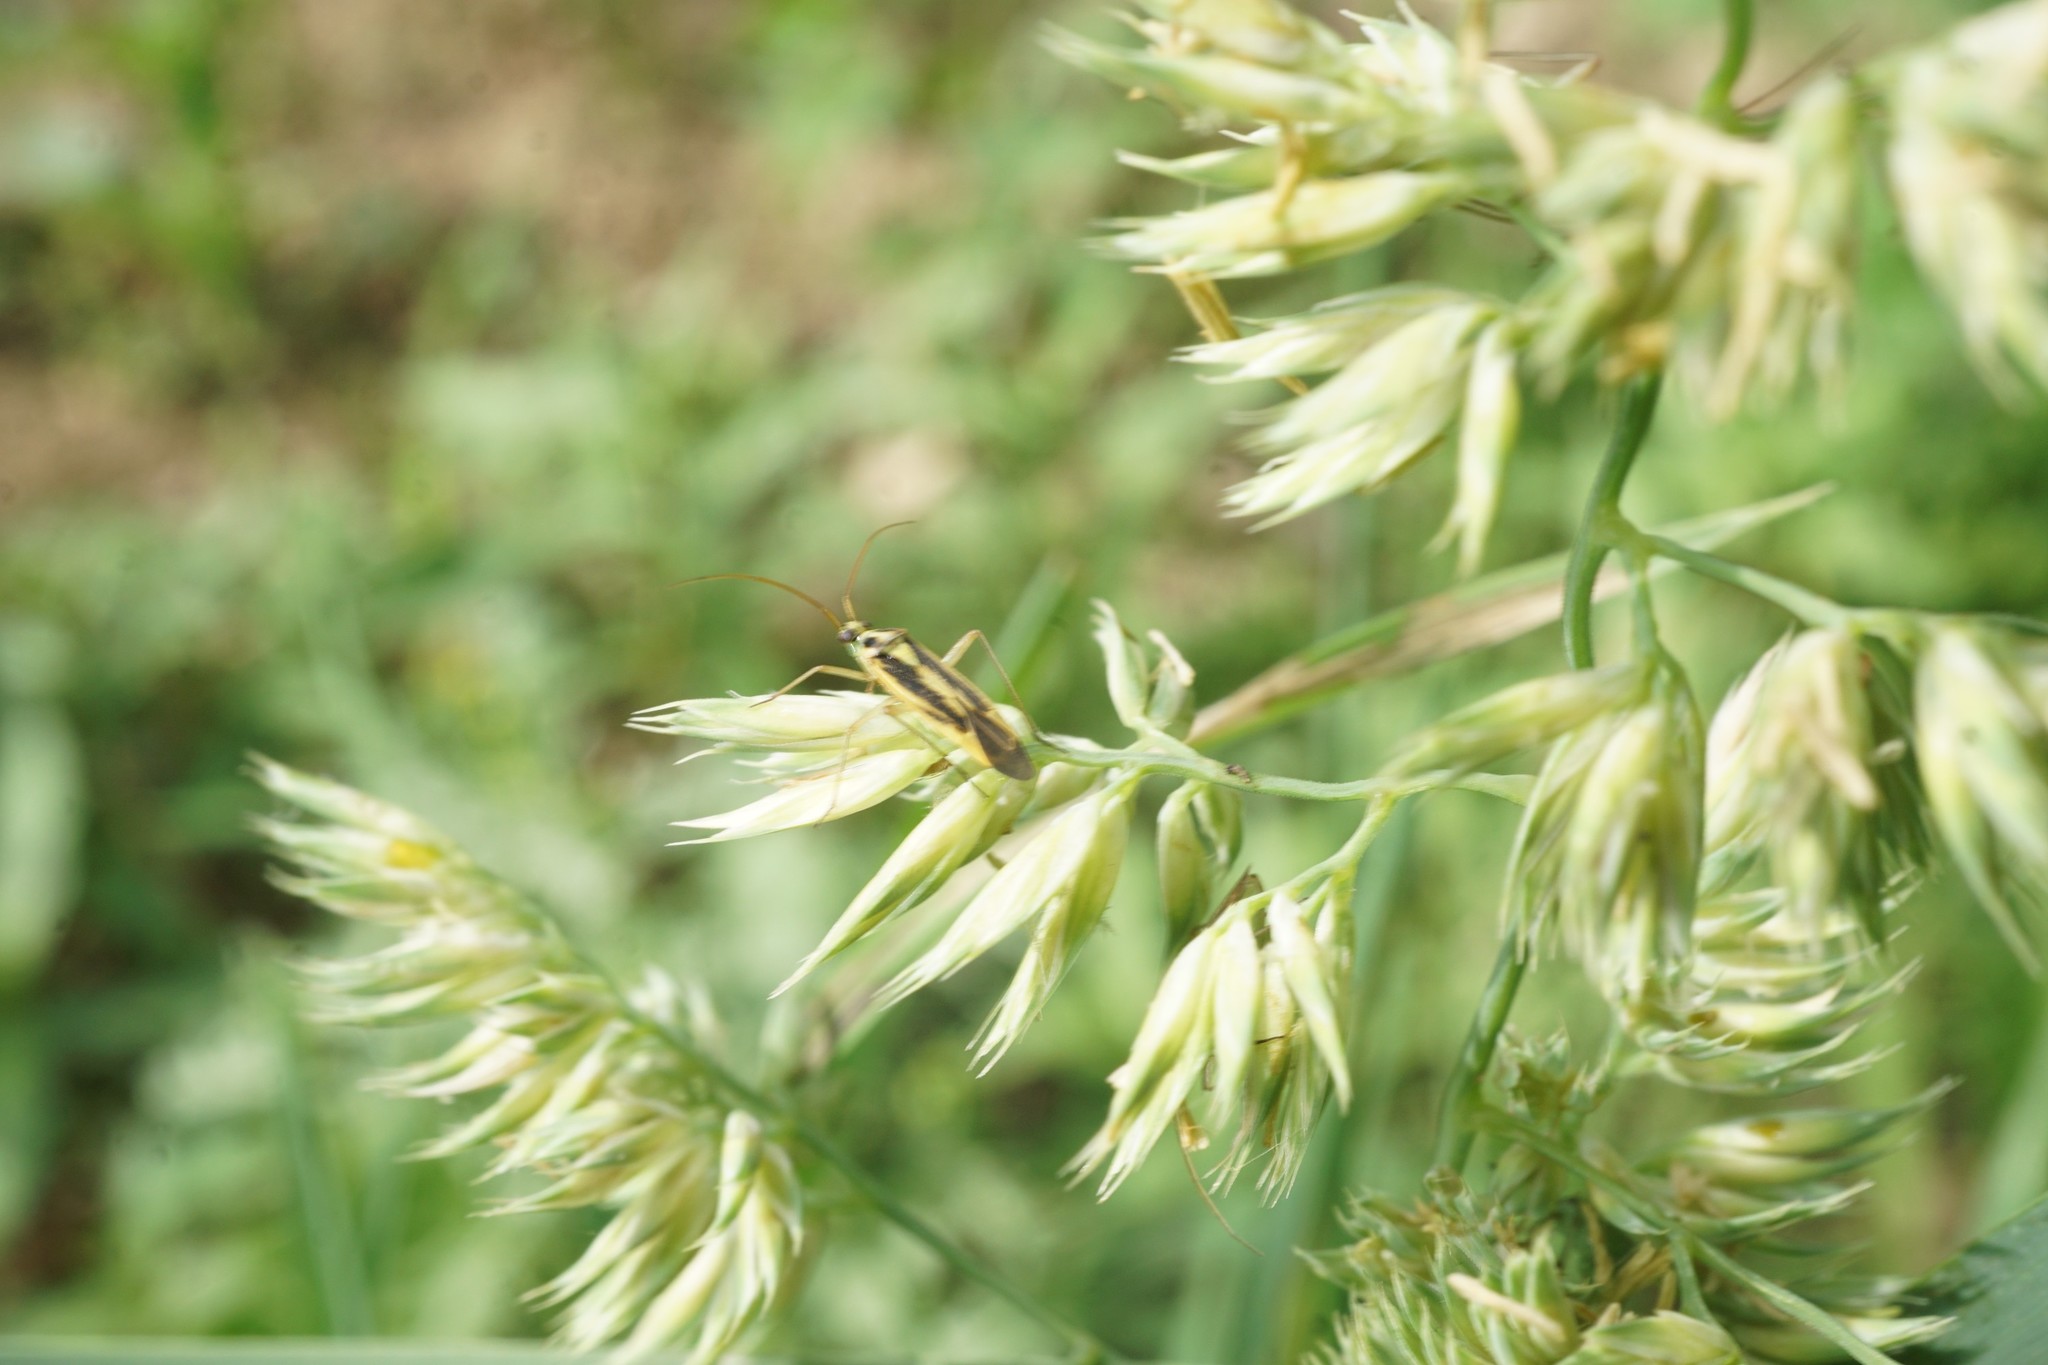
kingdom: Animalia
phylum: Arthropoda
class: Insecta
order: Hemiptera
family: Miridae
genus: Stenotus
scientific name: Stenotus binotatus
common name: Plant bug
